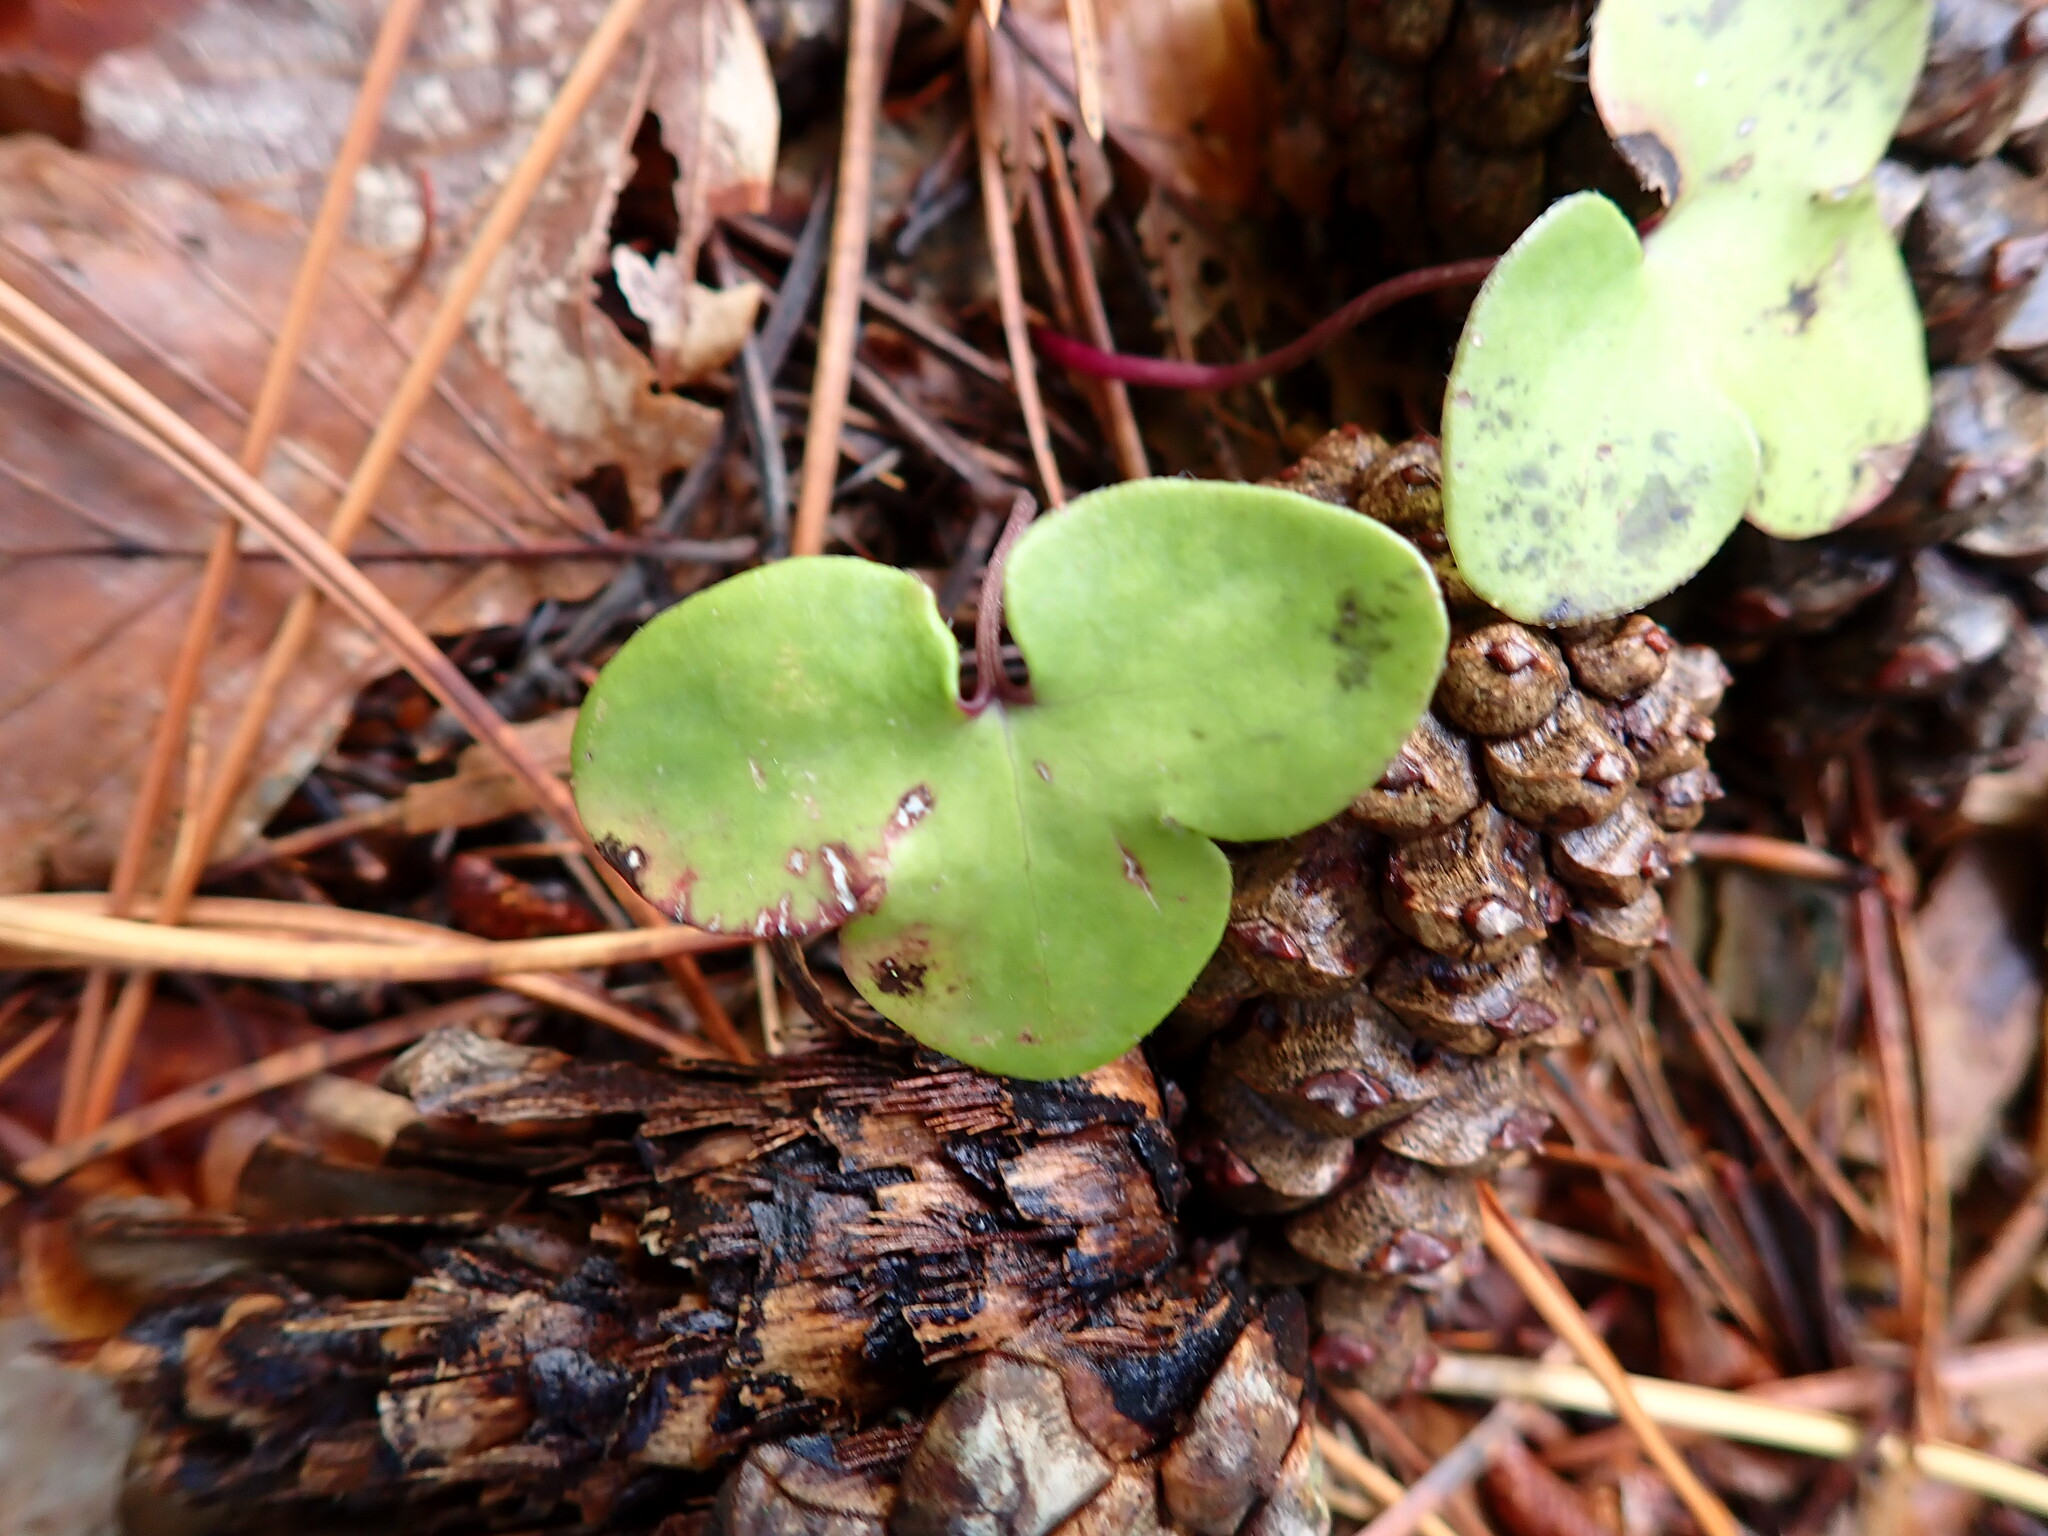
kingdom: Plantae
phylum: Tracheophyta
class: Magnoliopsida
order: Ranunculales
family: Ranunculaceae
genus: Hepatica
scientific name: Hepatica nobilis
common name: Liverleaf
